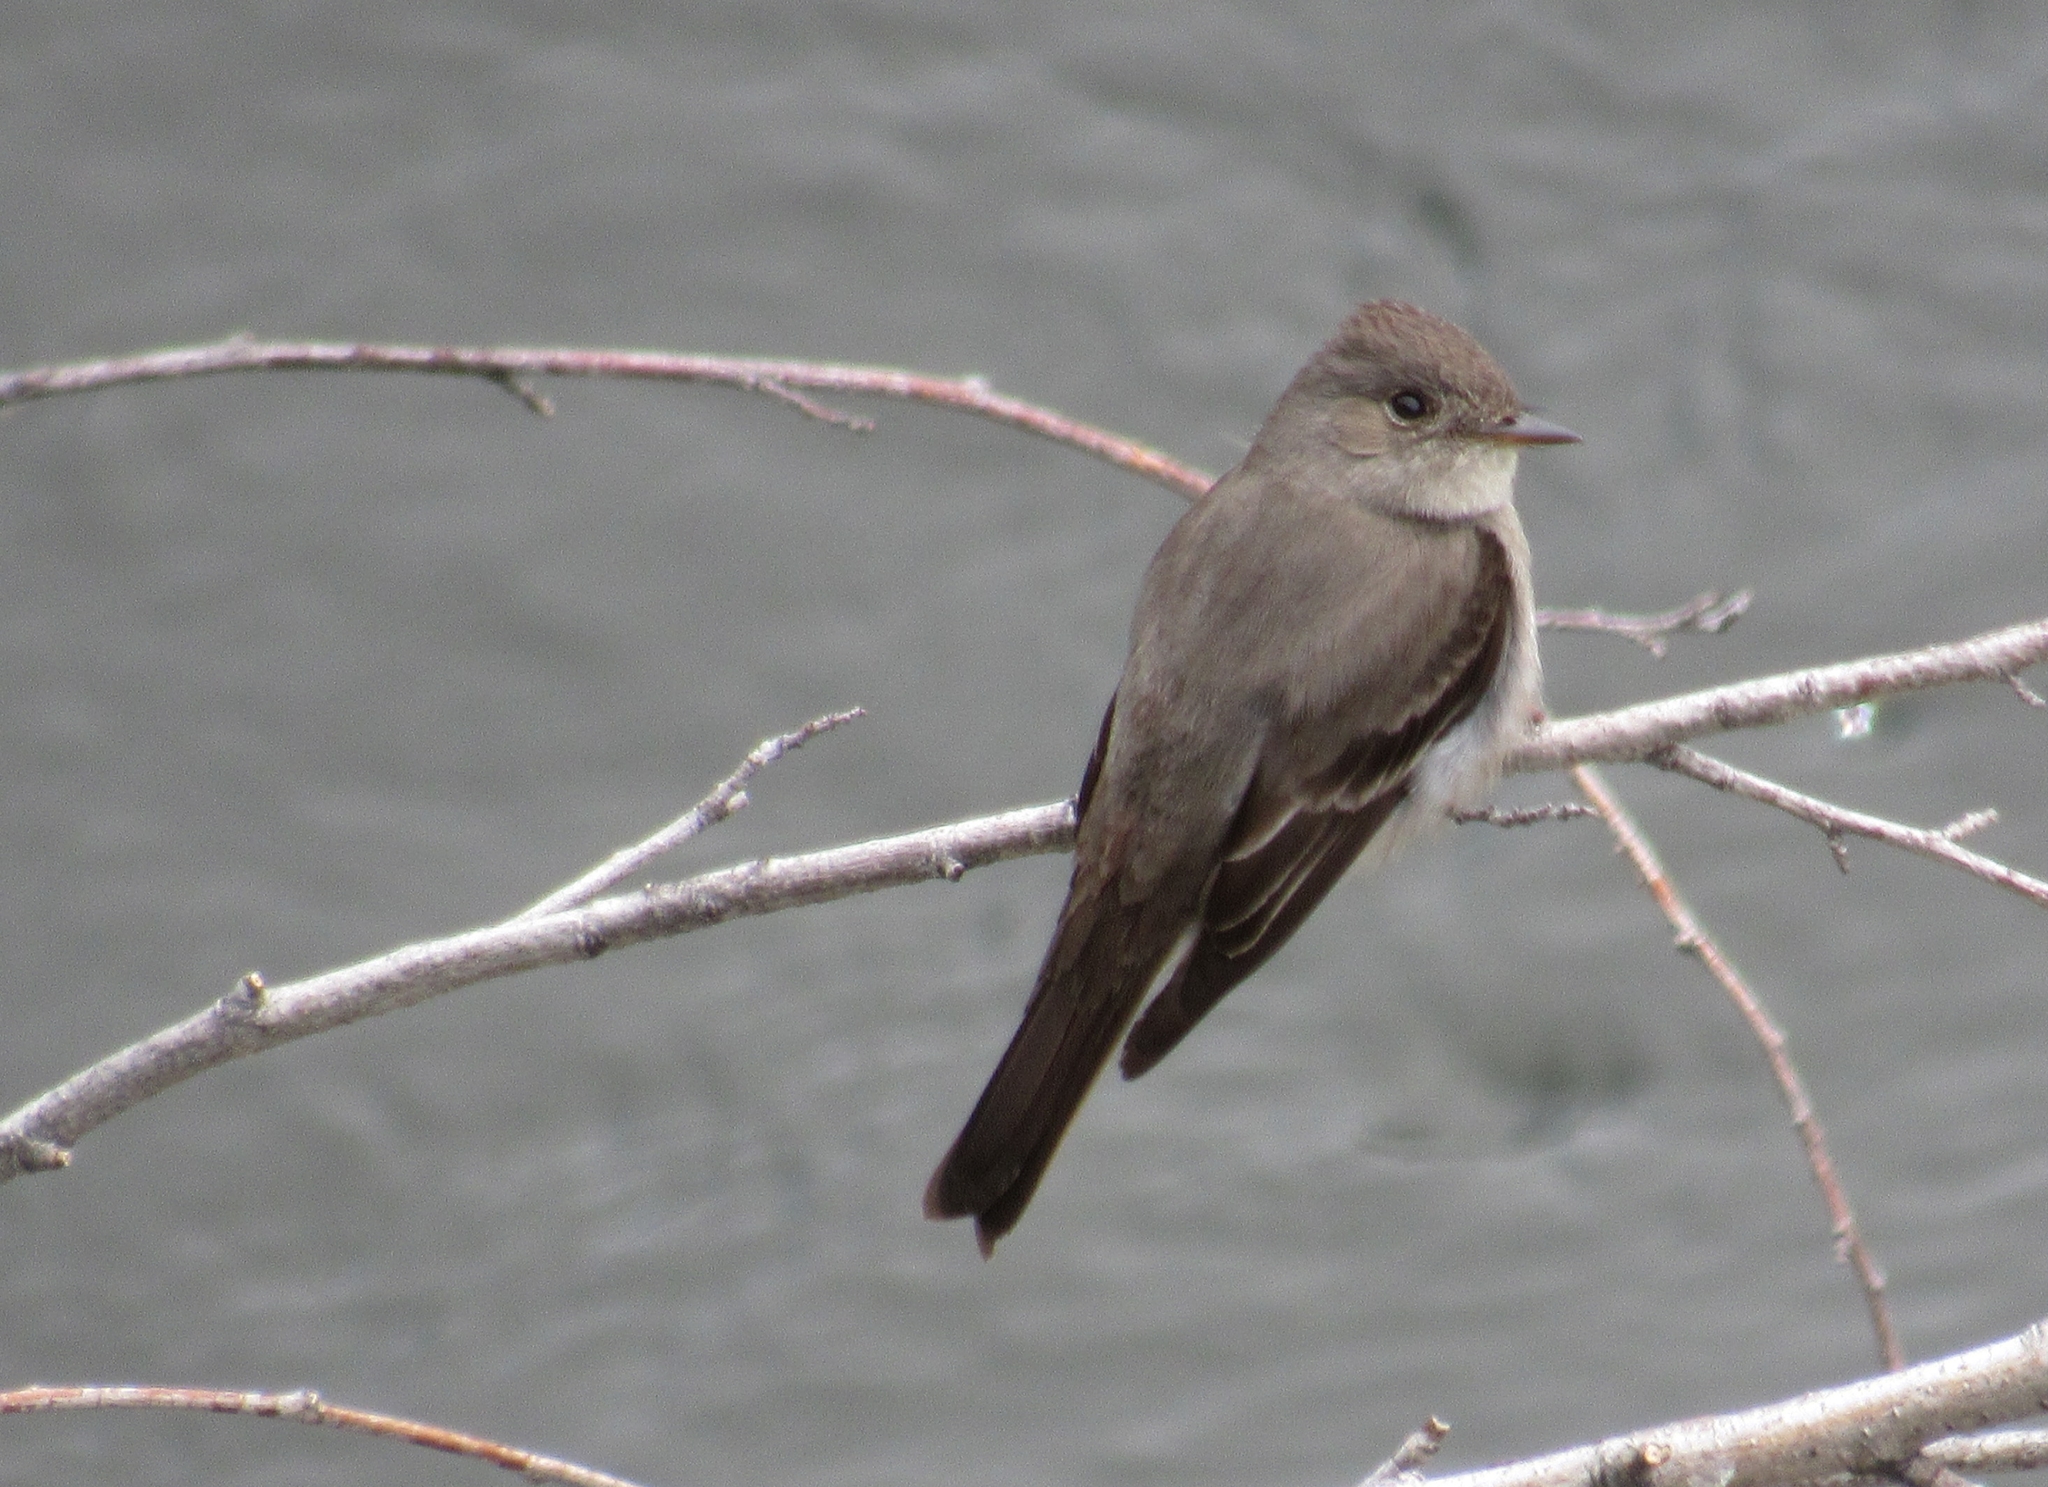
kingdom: Animalia
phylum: Chordata
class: Aves
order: Passeriformes
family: Tyrannidae
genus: Contopus
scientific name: Contopus sordidulus
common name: Western wood-pewee
